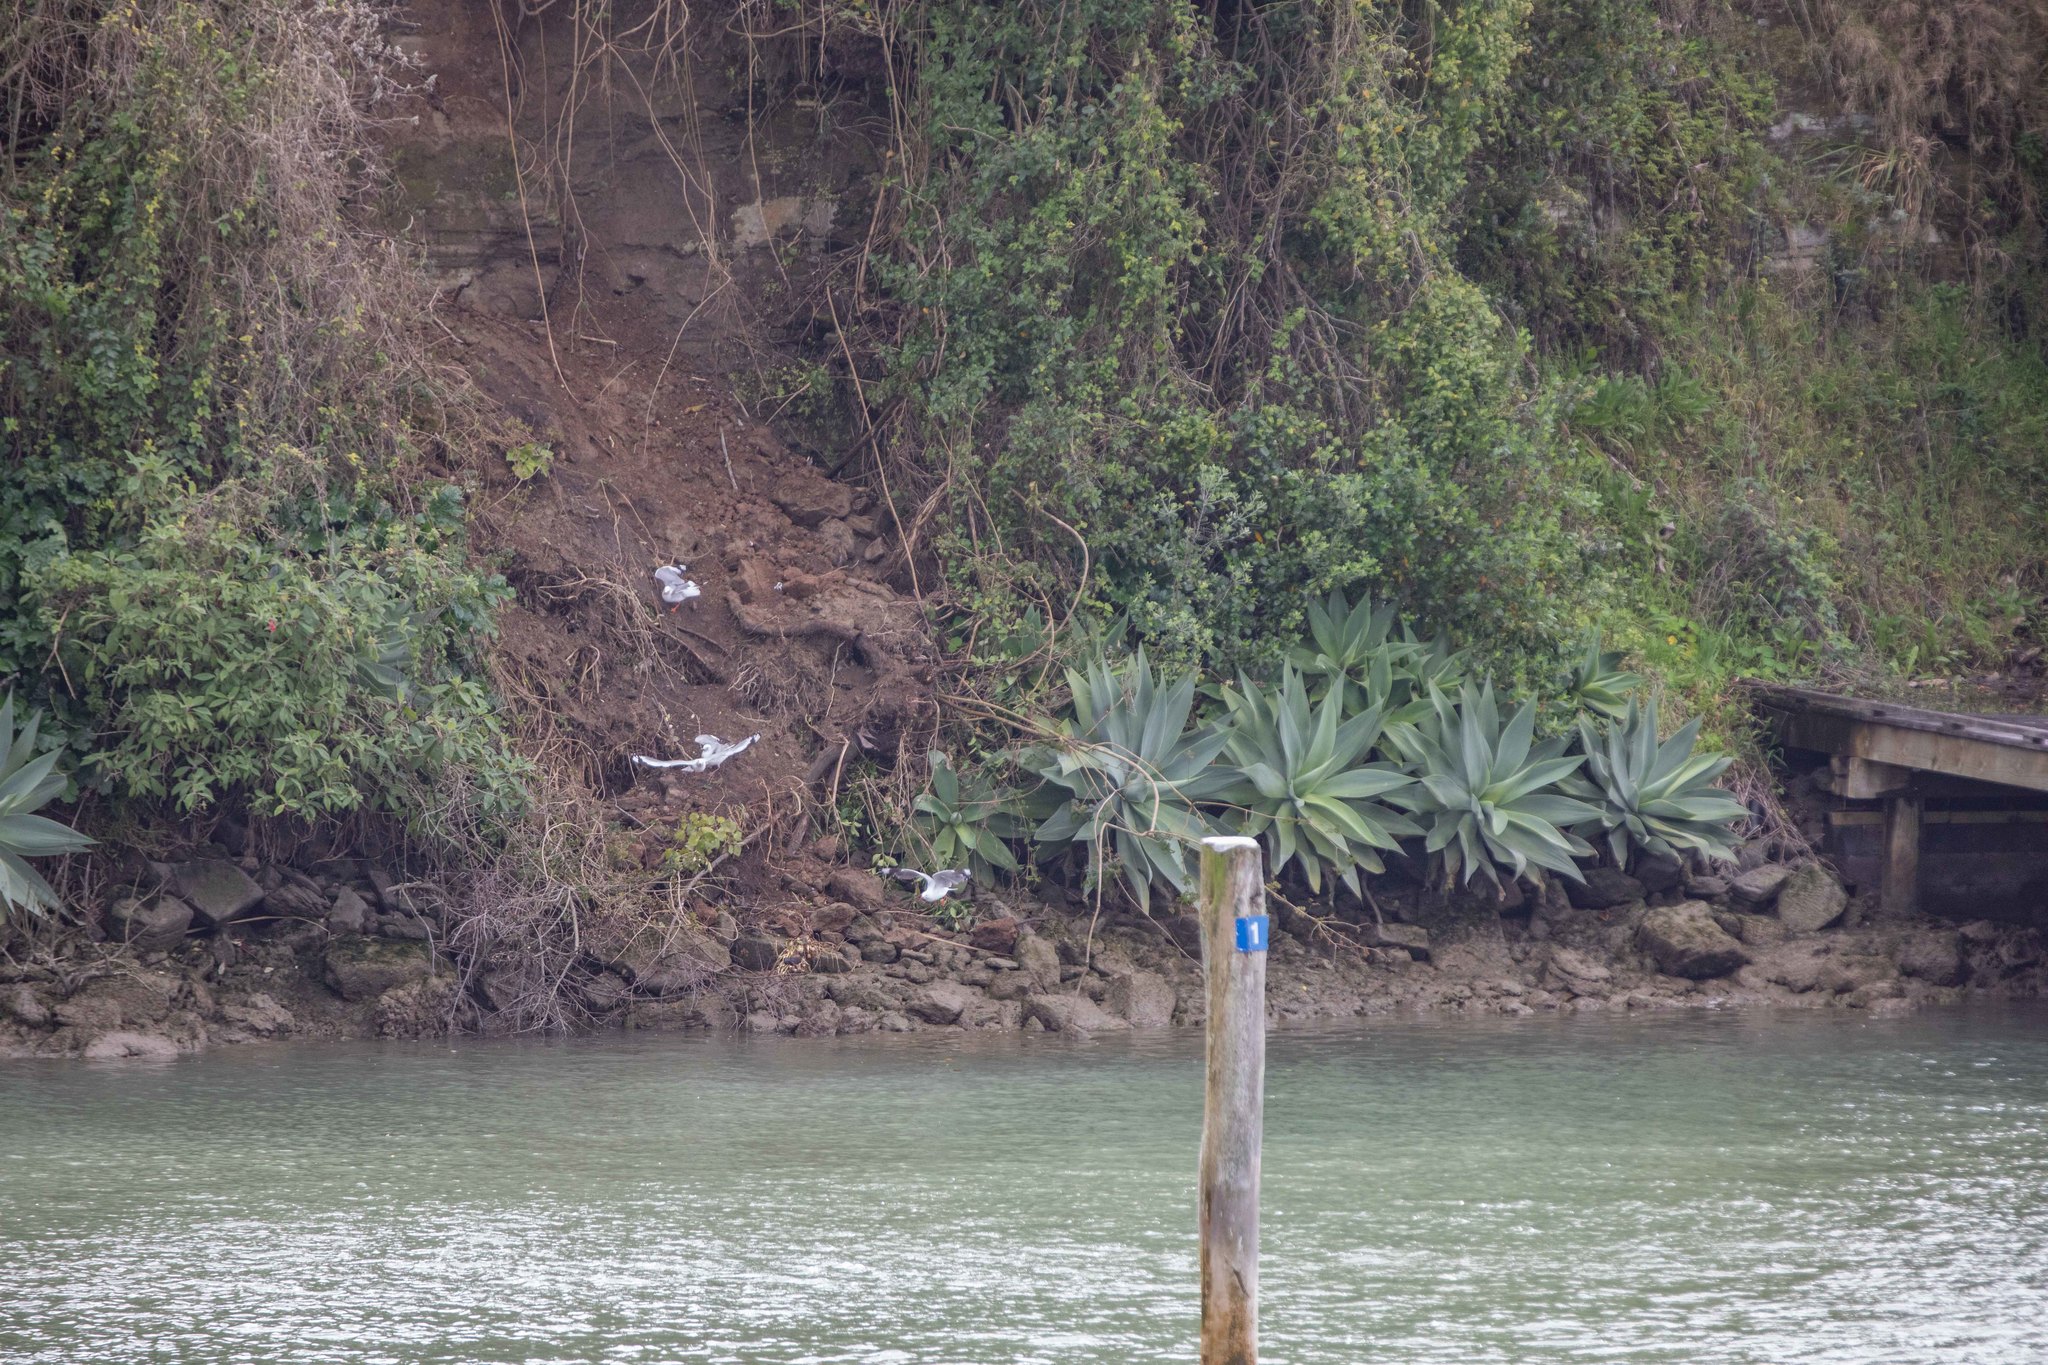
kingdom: Animalia
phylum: Chordata
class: Aves
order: Charadriiformes
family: Laridae
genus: Chroicocephalus
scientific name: Chroicocephalus novaehollandiae
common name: Silver gull
